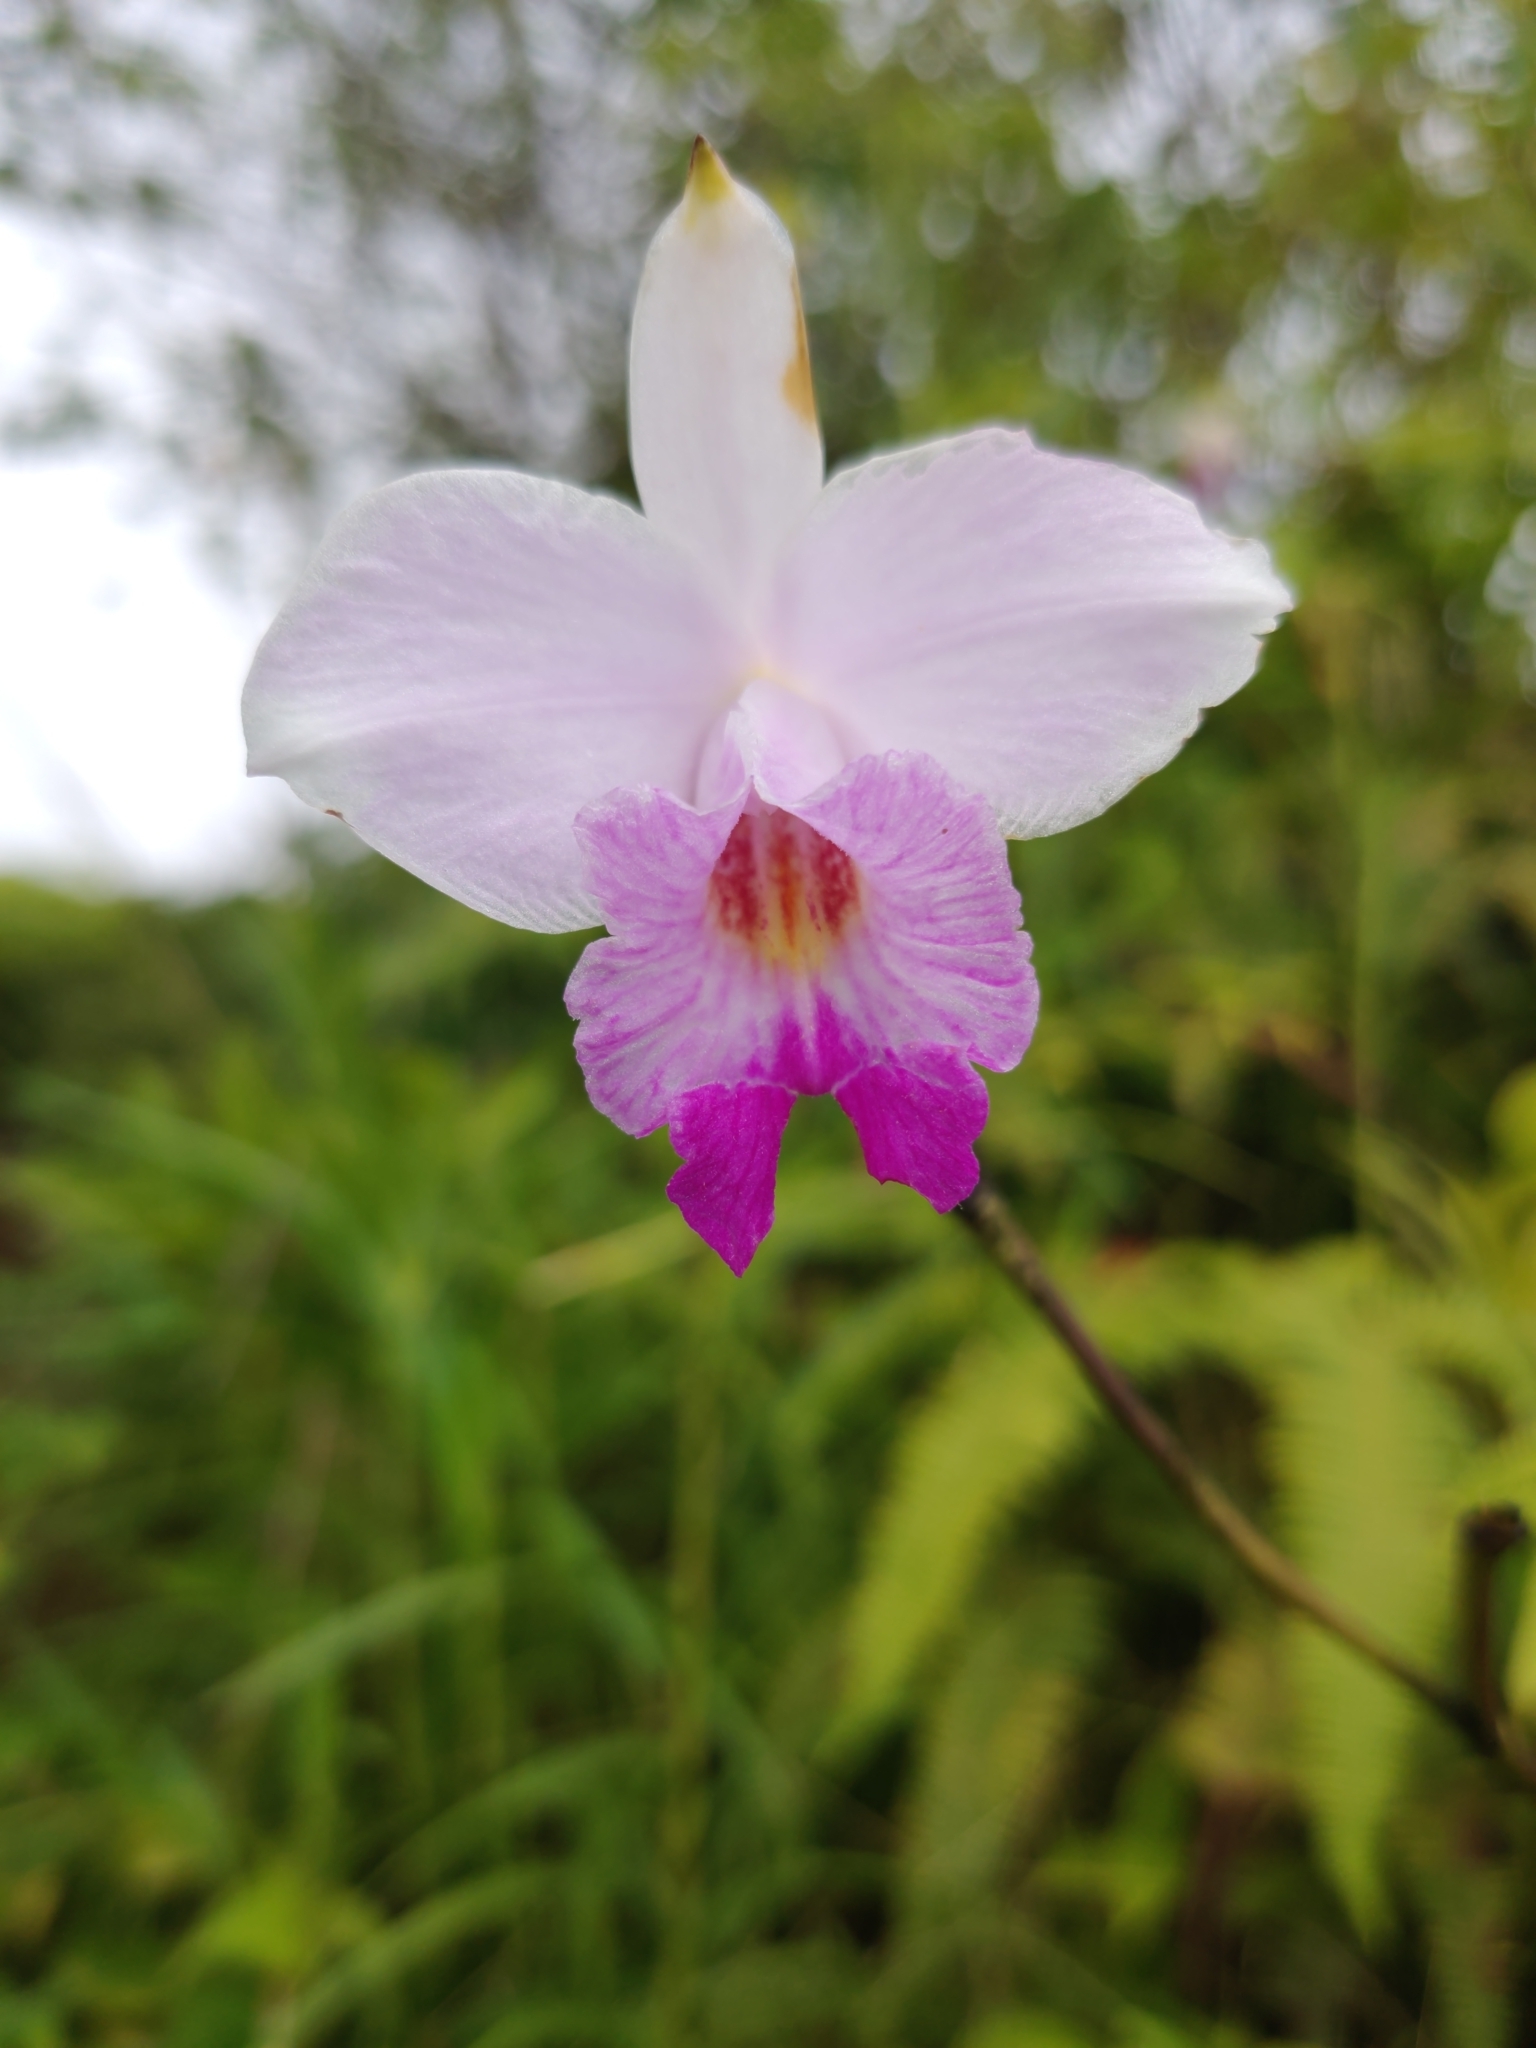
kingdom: Plantae
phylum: Tracheophyta
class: Liliopsida
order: Asparagales
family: Orchidaceae
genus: Arundina
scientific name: Arundina graminifolia
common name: Bamboo orchid
